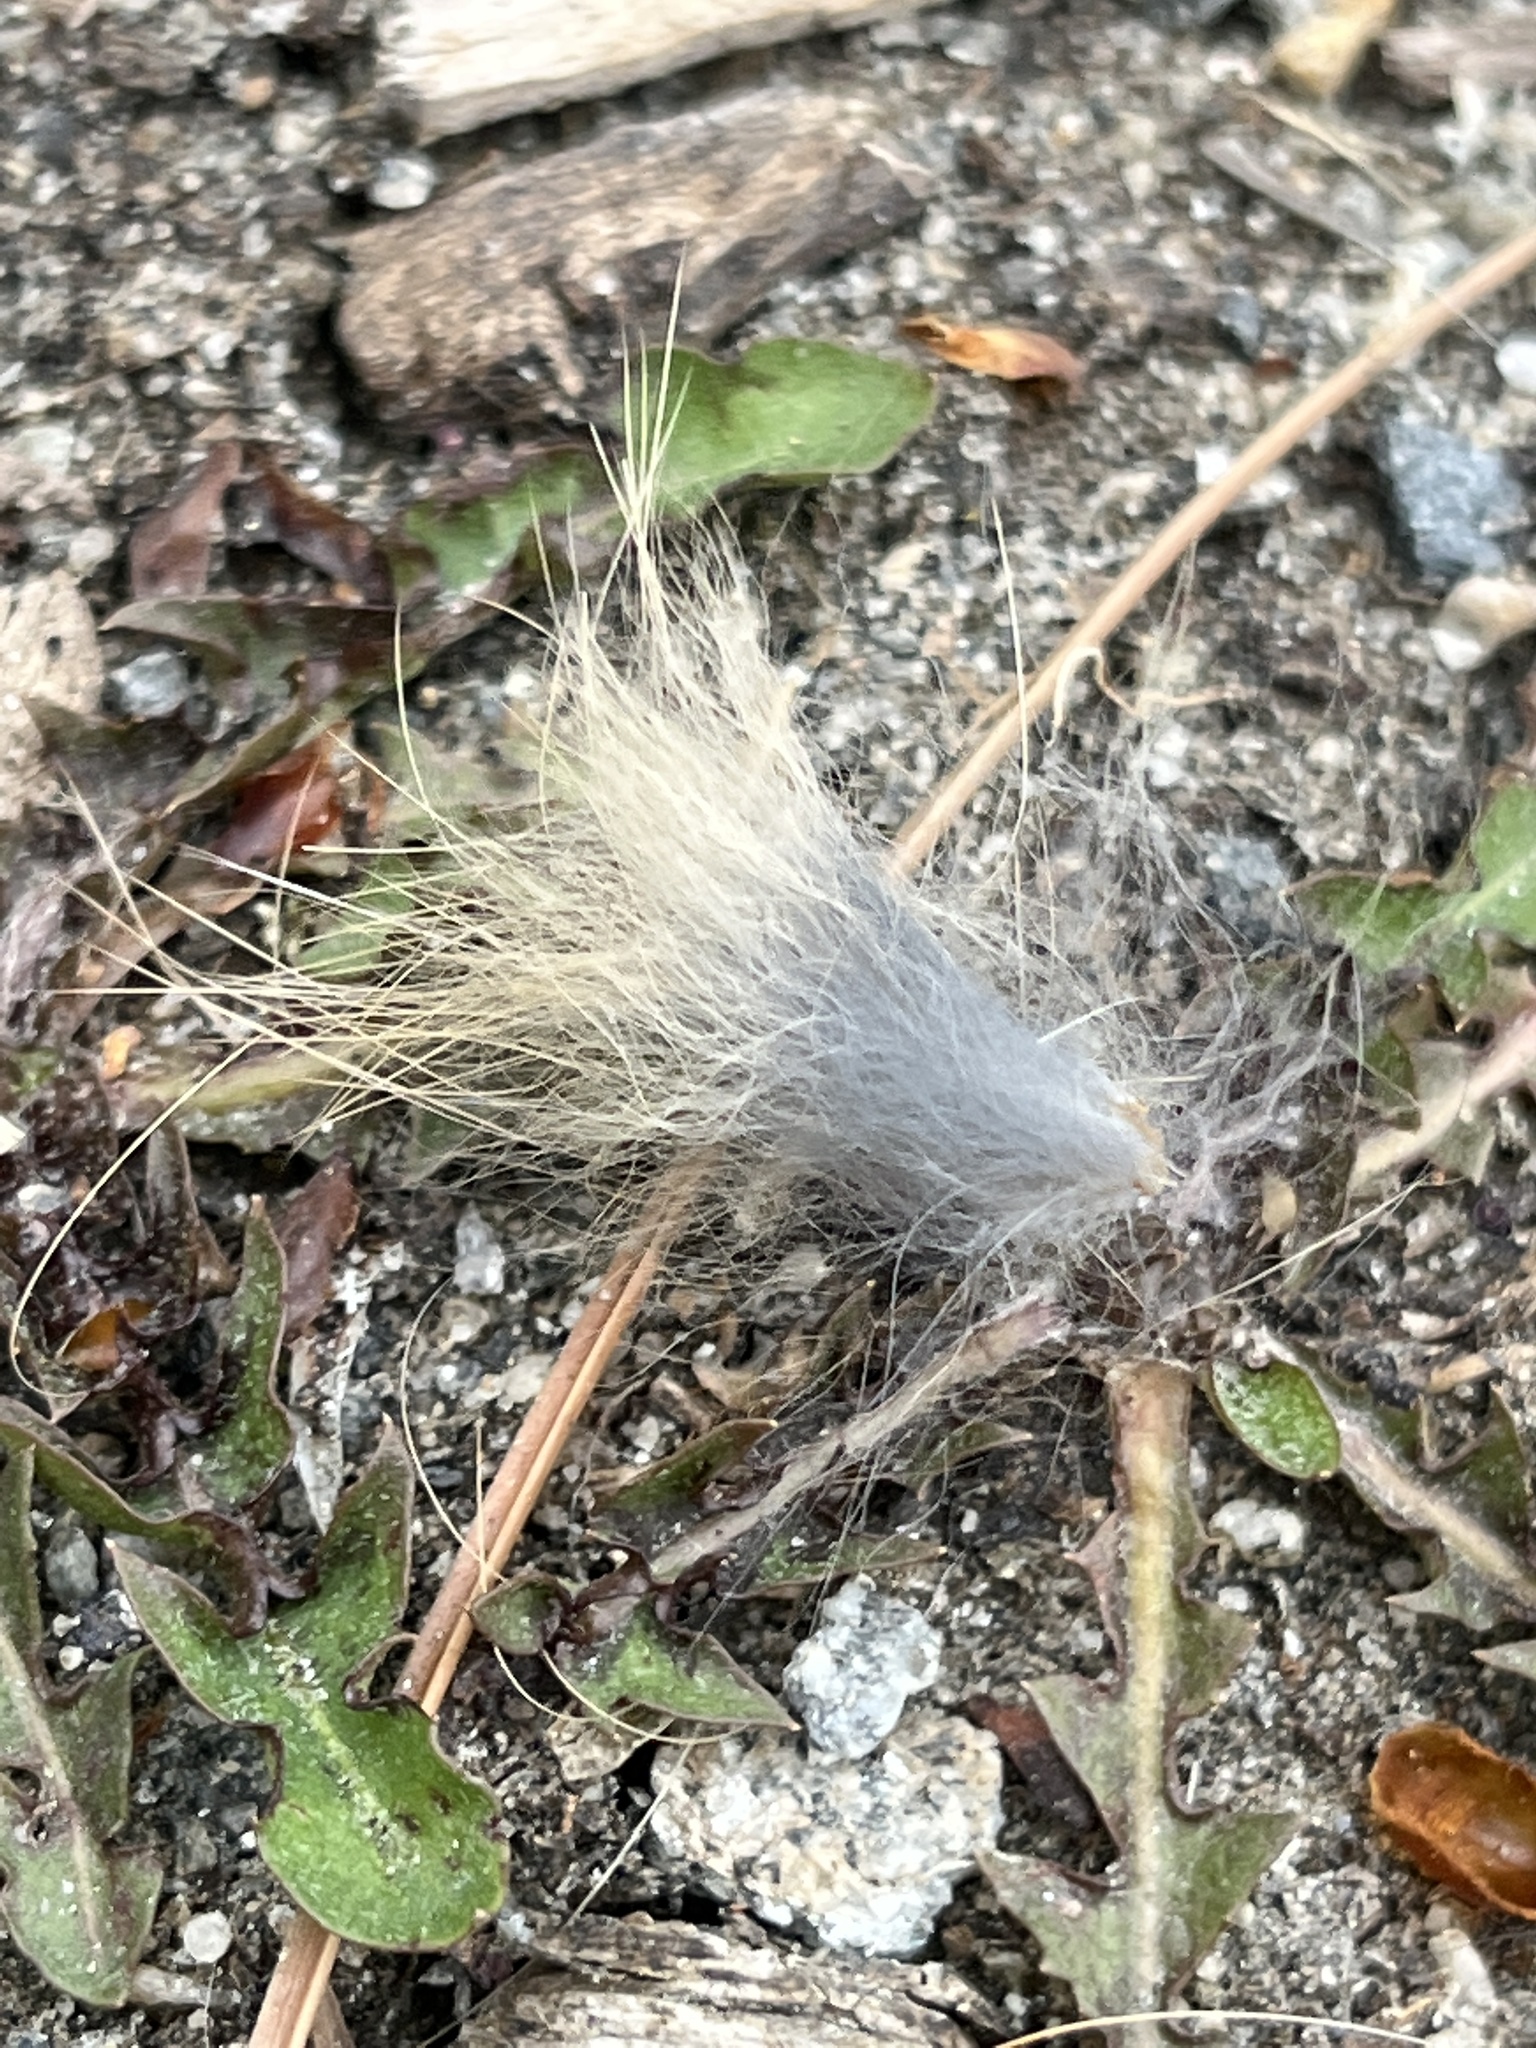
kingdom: Animalia
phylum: Chordata
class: Mammalia
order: Lagomorpha
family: Leporidae
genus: Sylvilagus
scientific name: Sylvilagus
